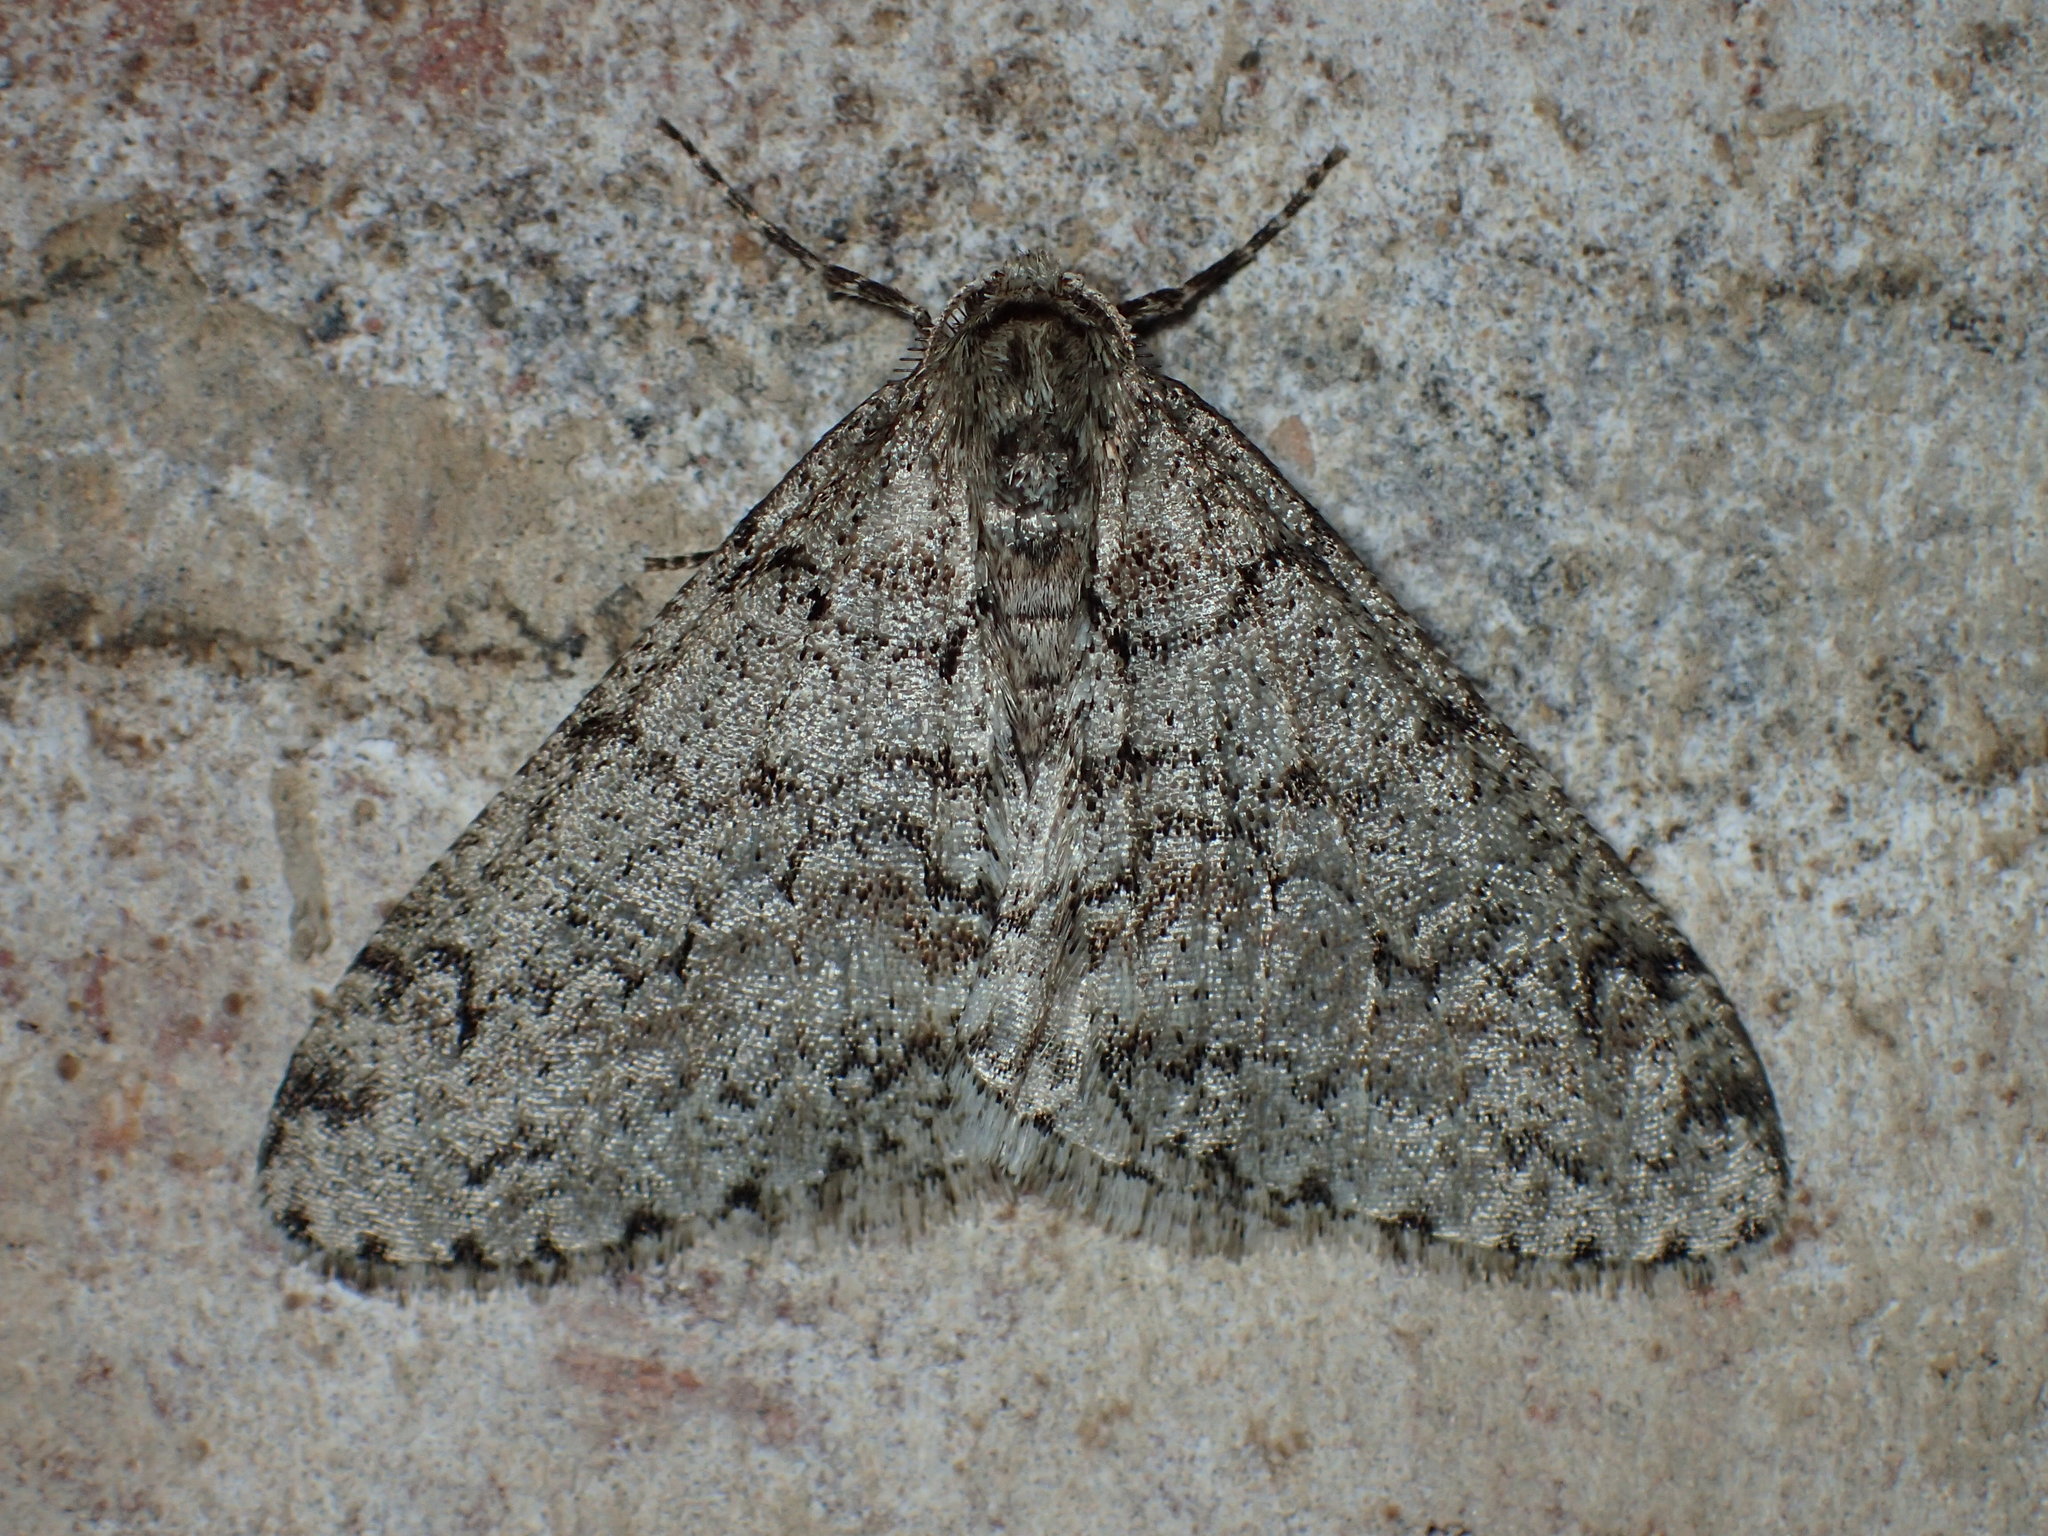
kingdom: Animalia
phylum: Arthropoda
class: Insecta
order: Lepidoptera
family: Geometridae
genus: Phigalia
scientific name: Phigalia denticulata
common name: Toothed phigalia
